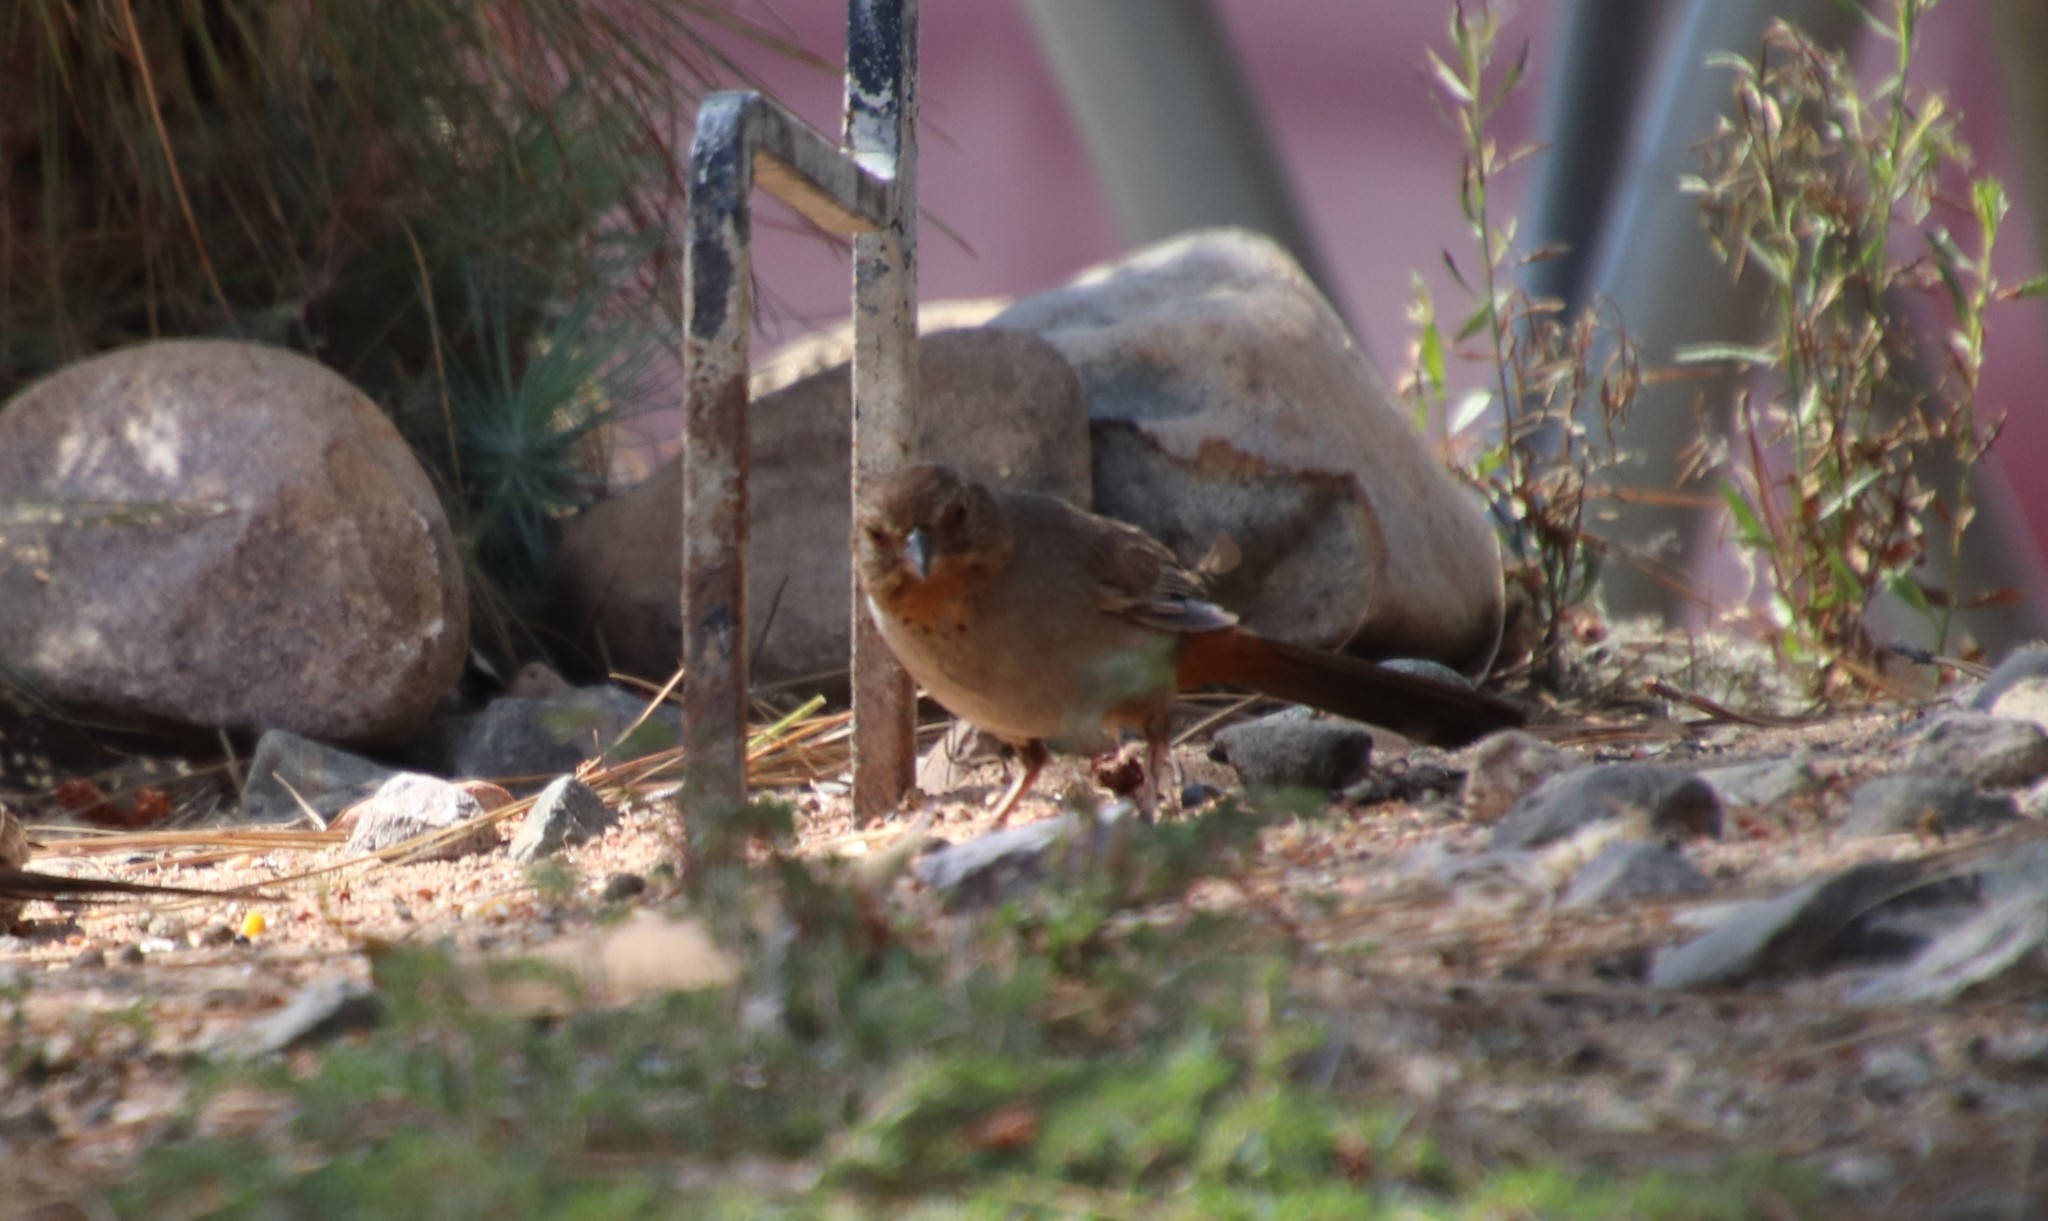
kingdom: Animalia
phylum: Chordata
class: Aves
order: Passeriformes
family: Passerellidae
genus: Melozone
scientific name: Melozone crissalis
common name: California towhee
